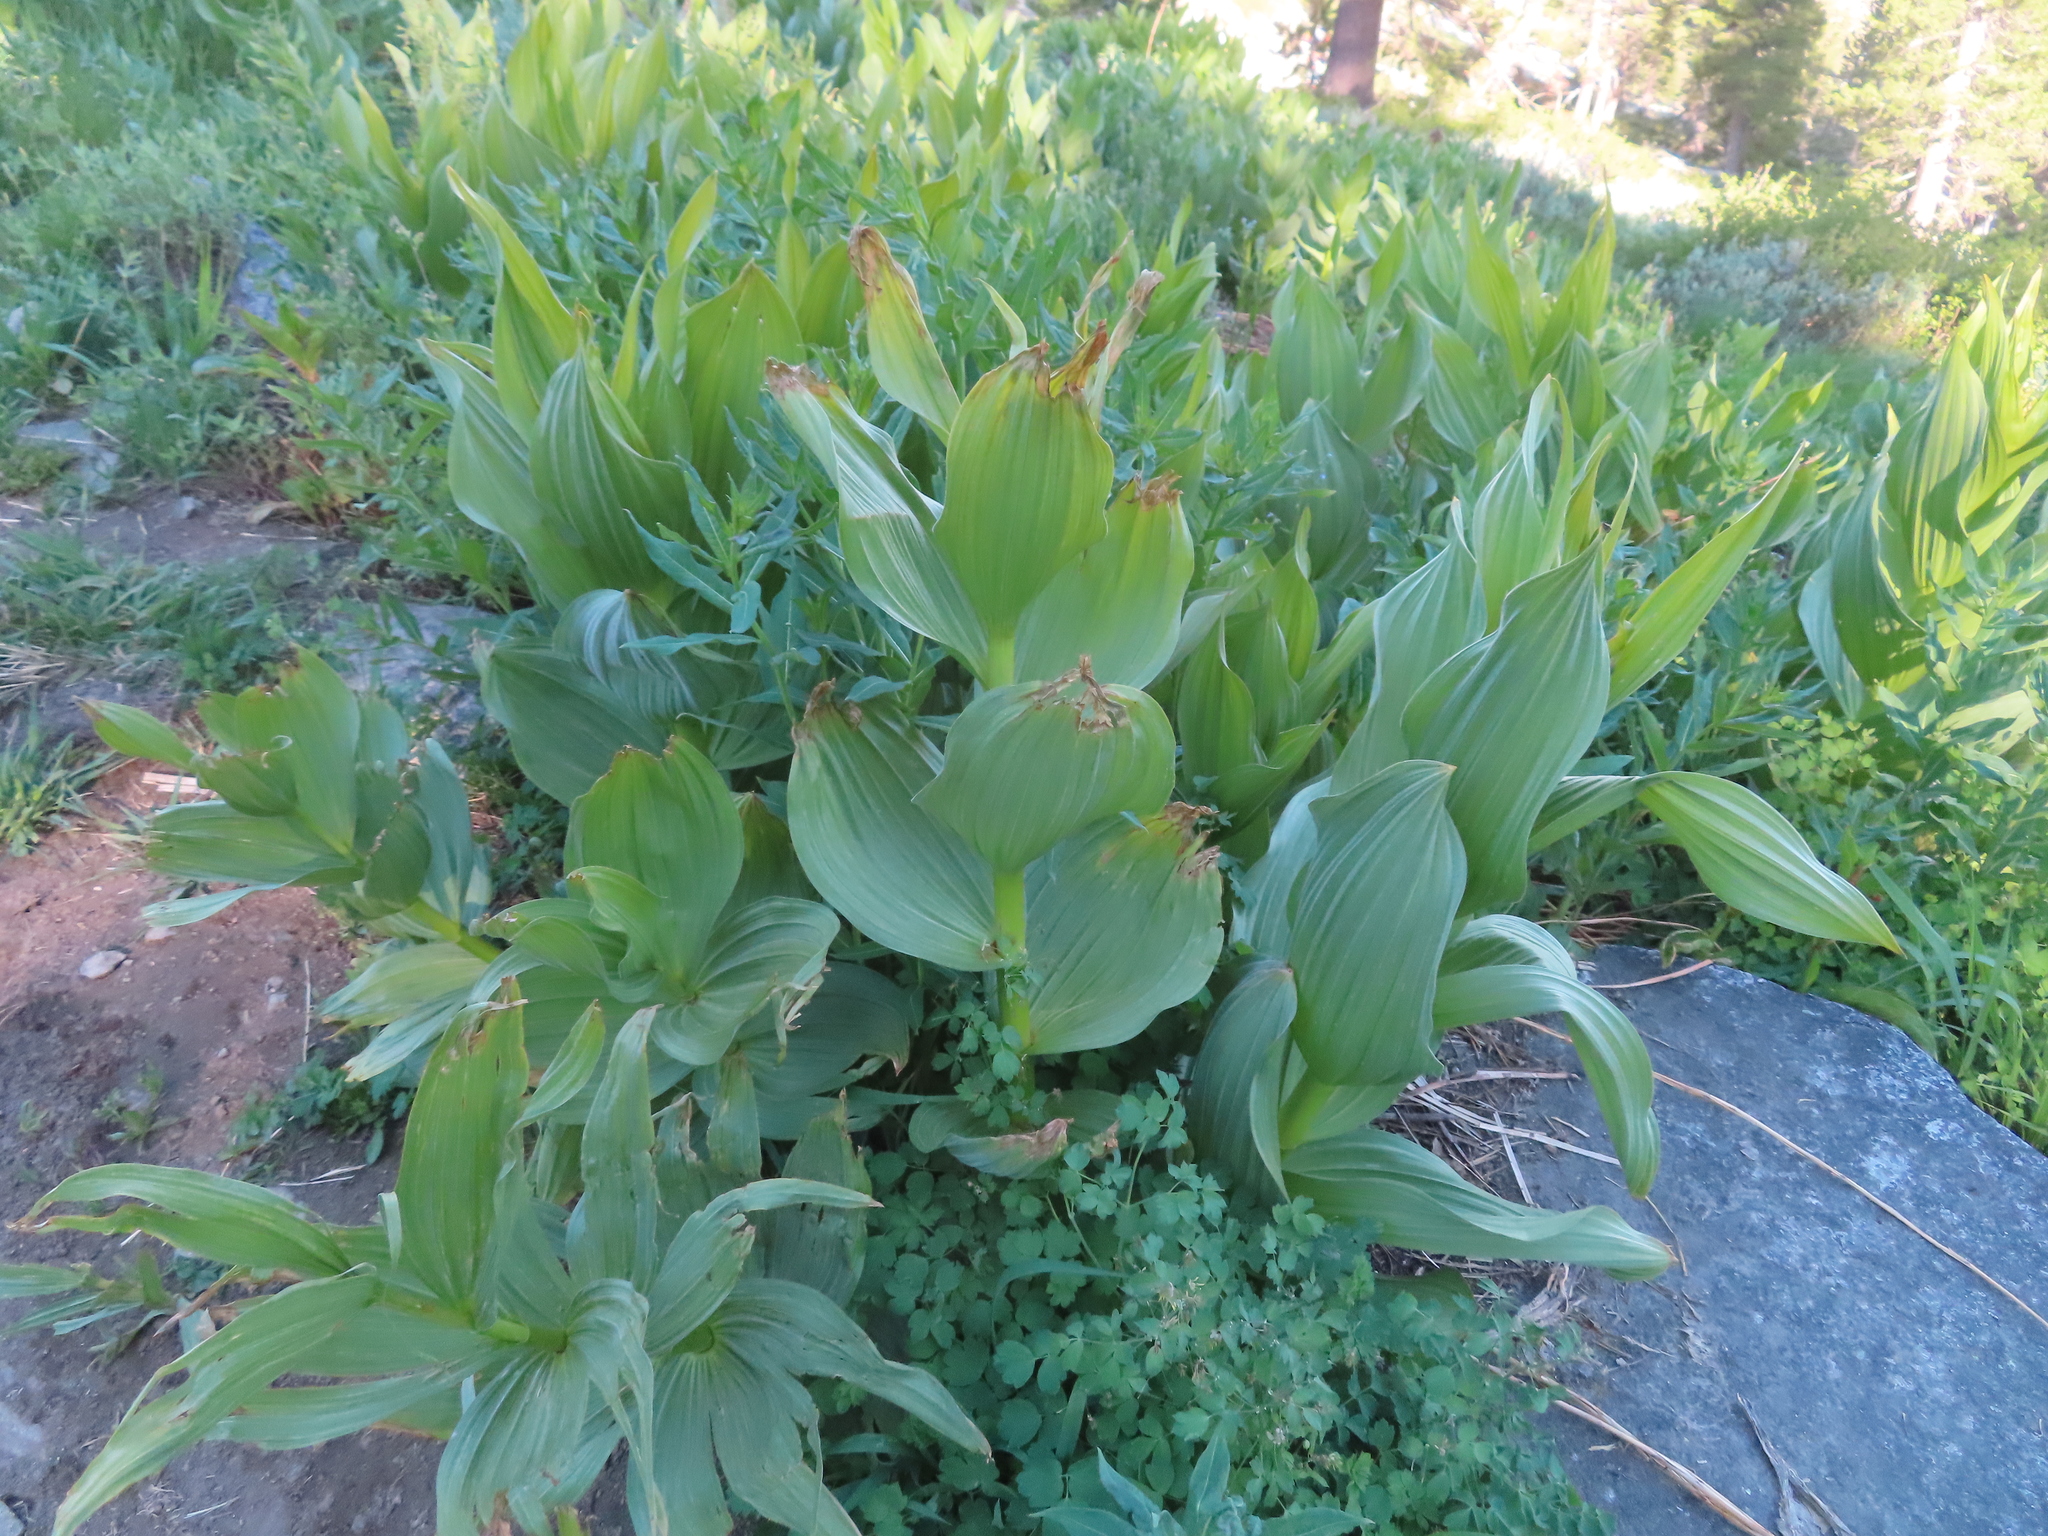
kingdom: Plantae
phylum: Tracheophyta
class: Liliopsida
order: Liliales
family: Melanthiaceae
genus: Veratrum
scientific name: Veratrum californicum
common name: California veratrum
